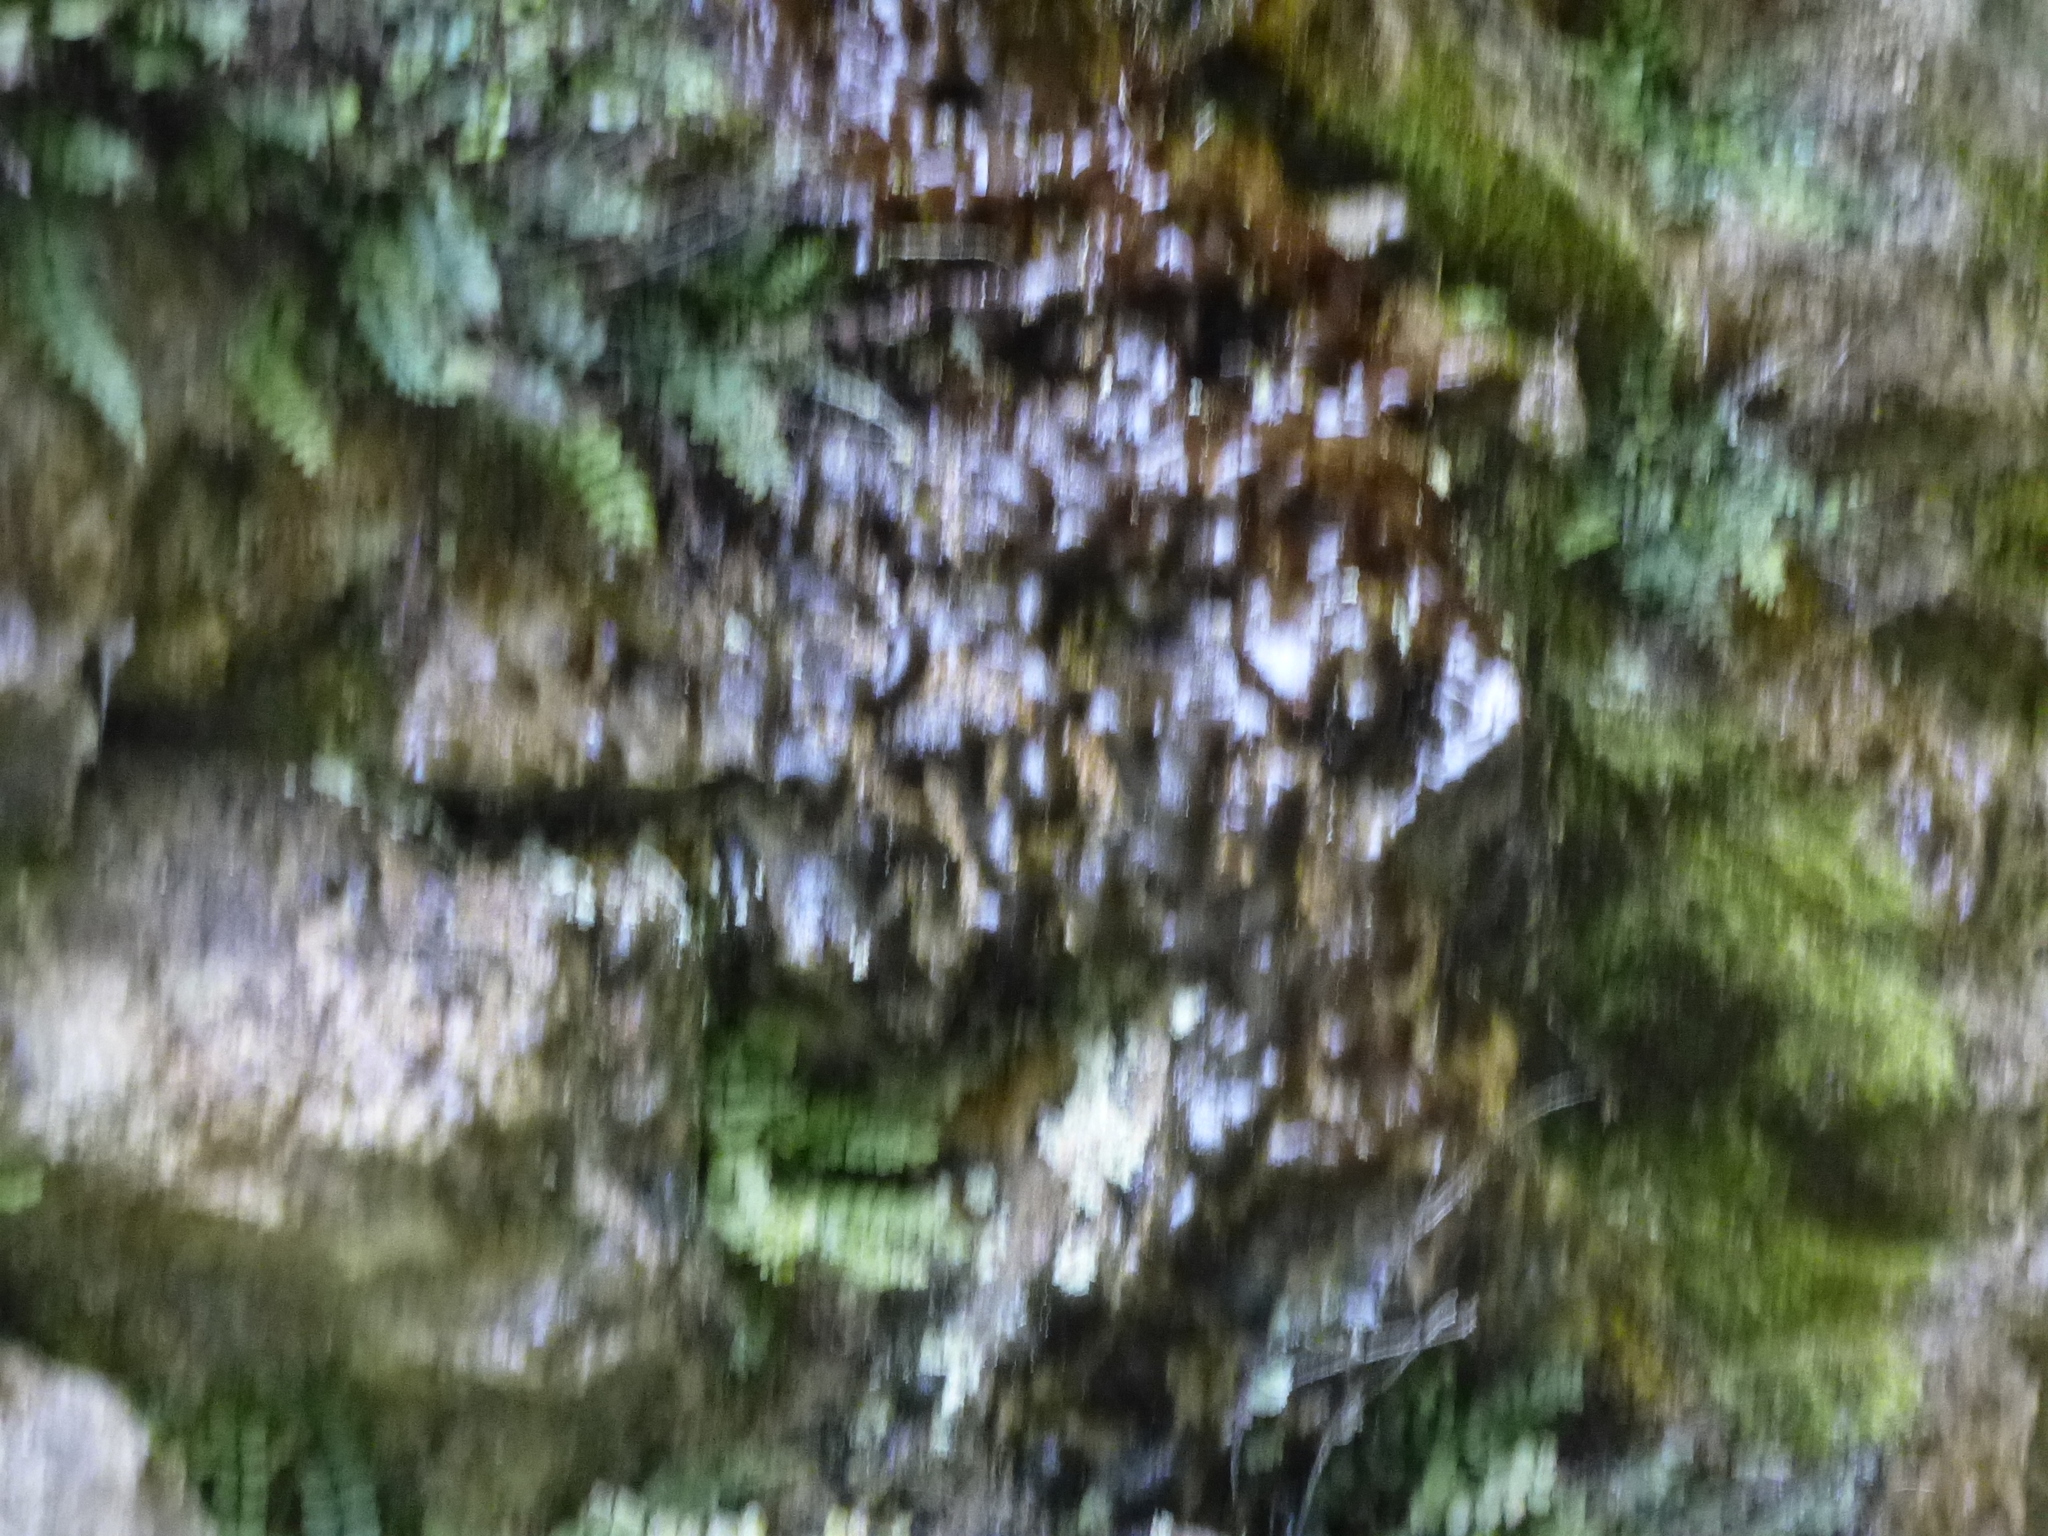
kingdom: Plantae
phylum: Tracheophyta
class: Polypodiopsida
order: Polypodiales
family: Aspleniaceae
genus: Asplenium
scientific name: Asplenium trichomanes
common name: Maidenhair spleenwort
